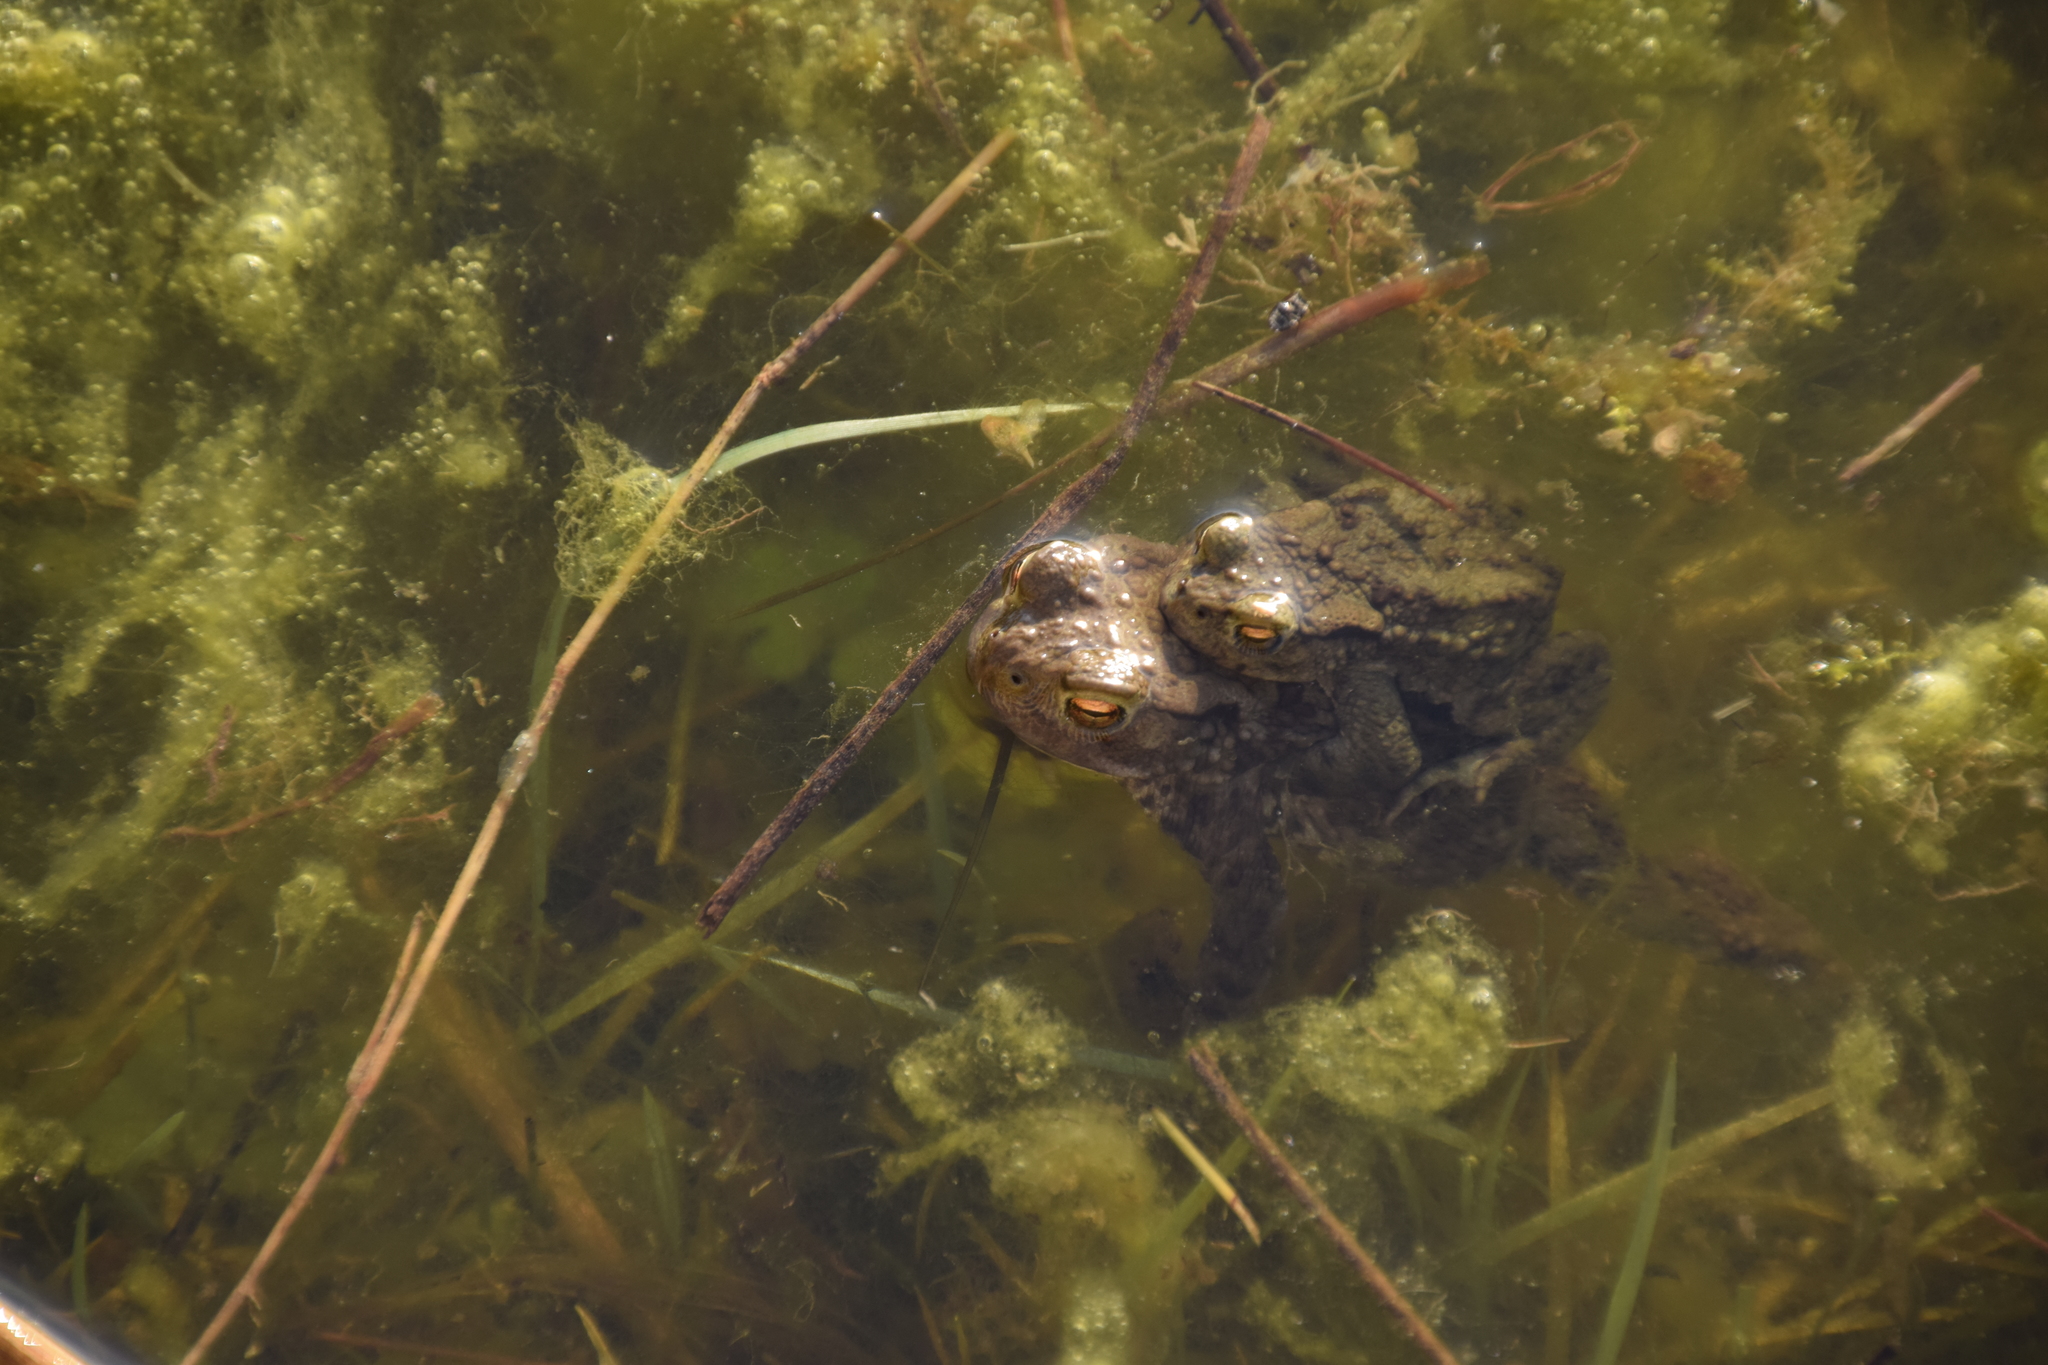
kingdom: Animalia
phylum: Chordata
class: Amphibia
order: Anura
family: Bufonidae
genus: Bufo
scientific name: Bufo bufo
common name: Common toad
